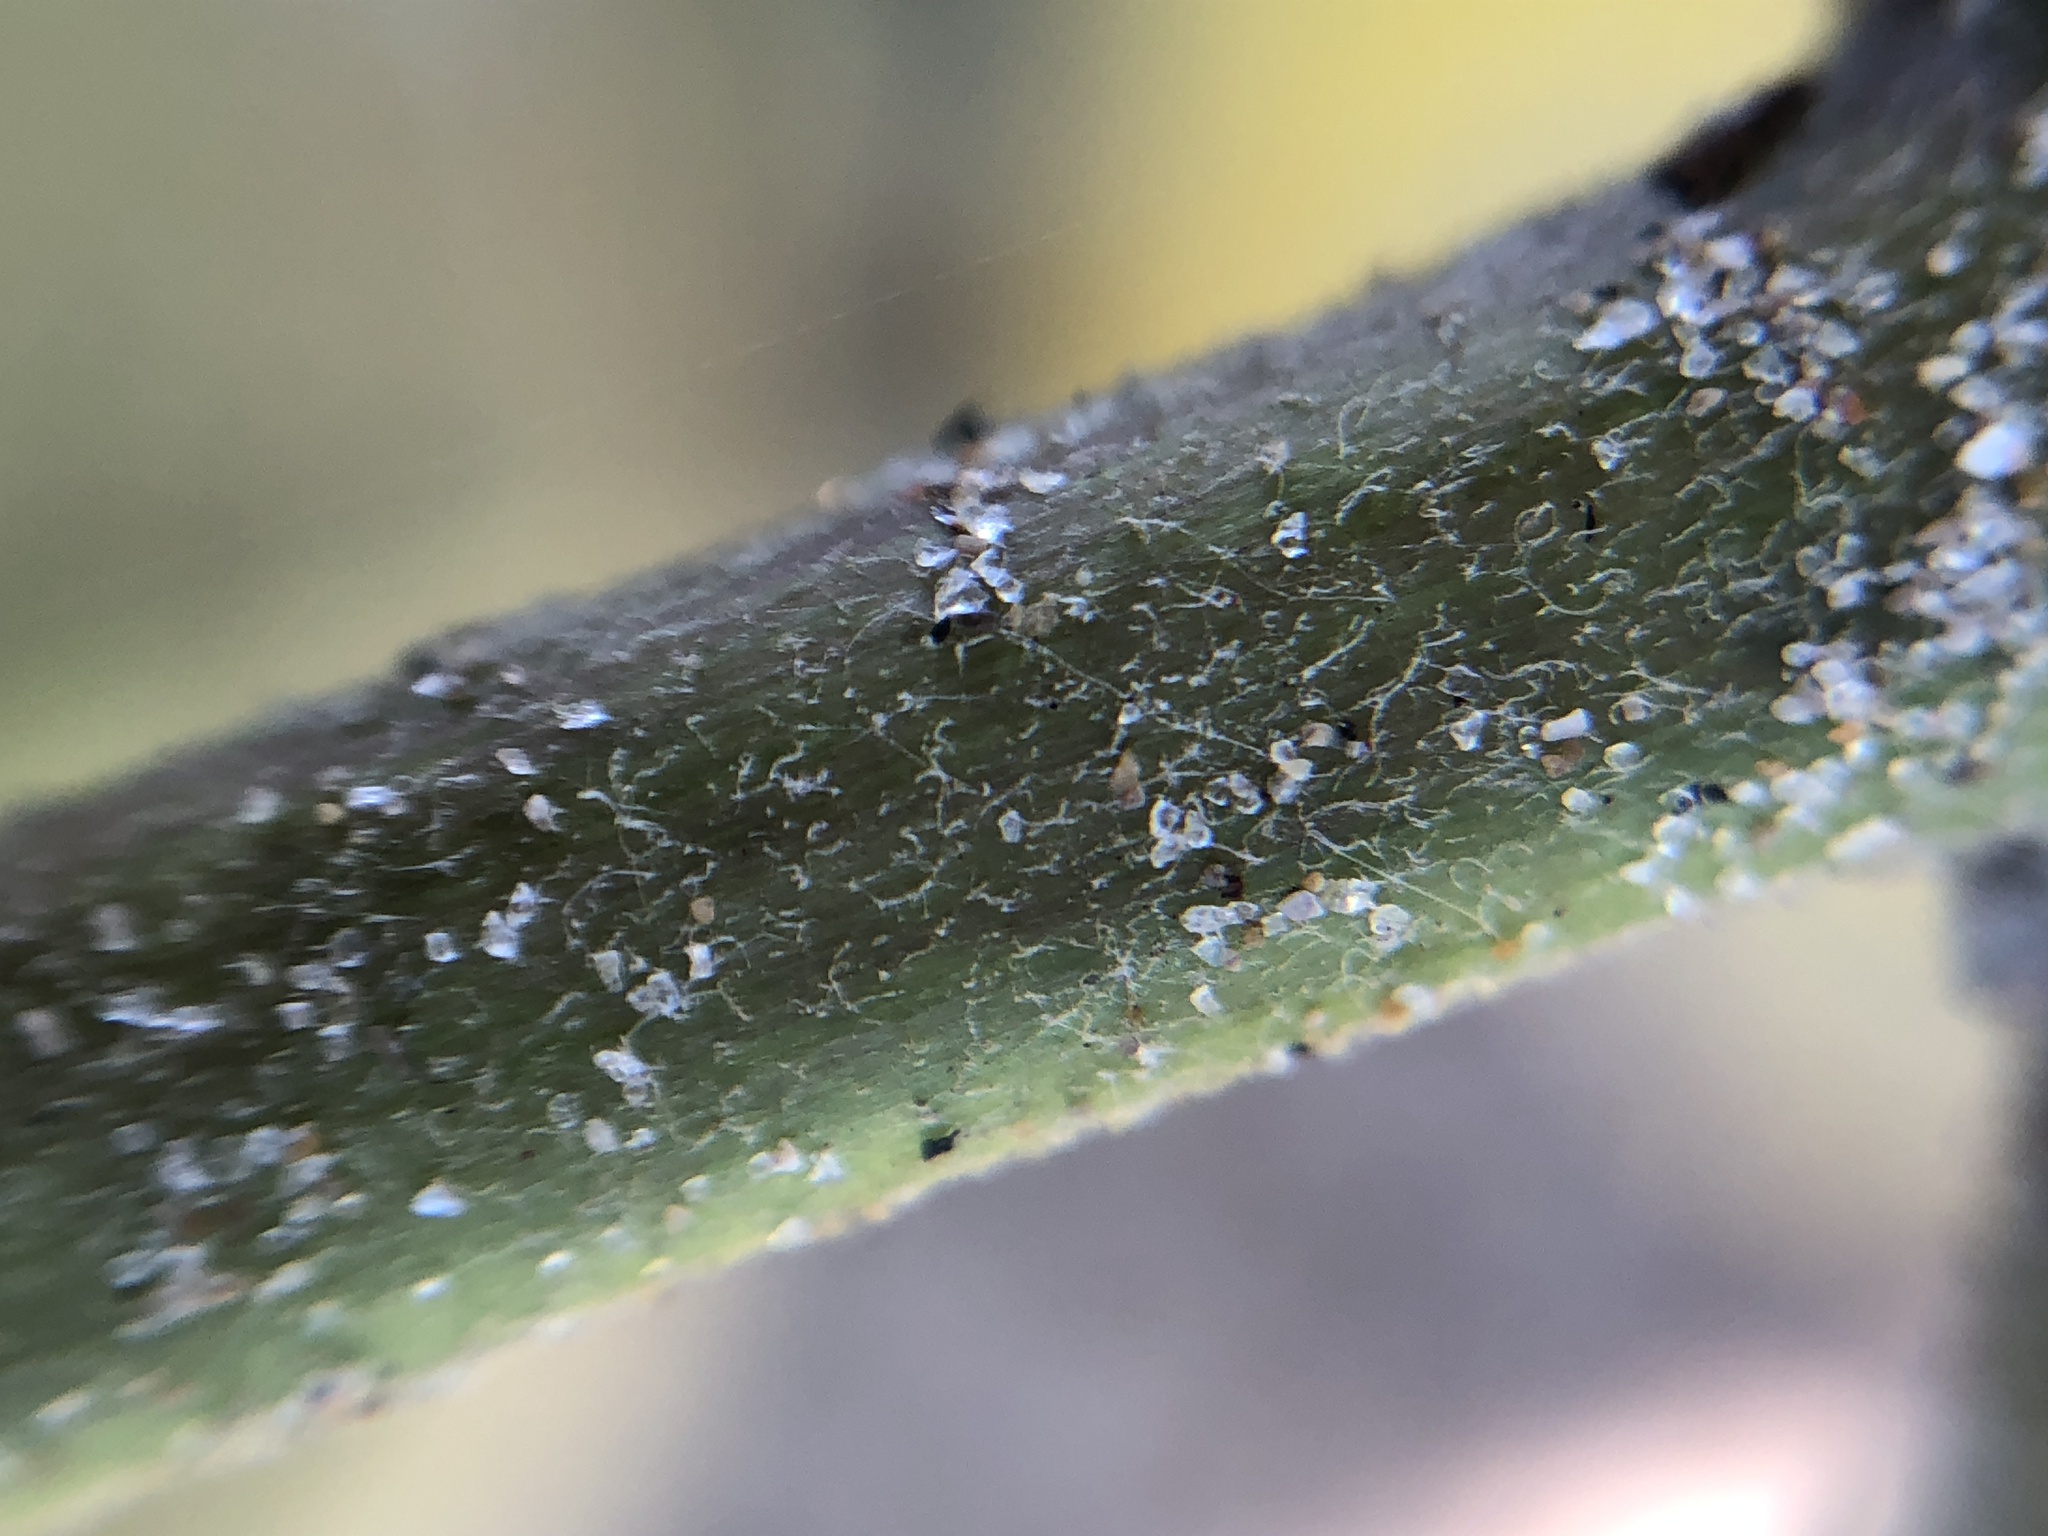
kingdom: Plantae
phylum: Tracheophyta
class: Magnoliopsida
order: Gentianales
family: Apocynaceae
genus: Asclepias
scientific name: Asclepias syriaca
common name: Common milkweed
